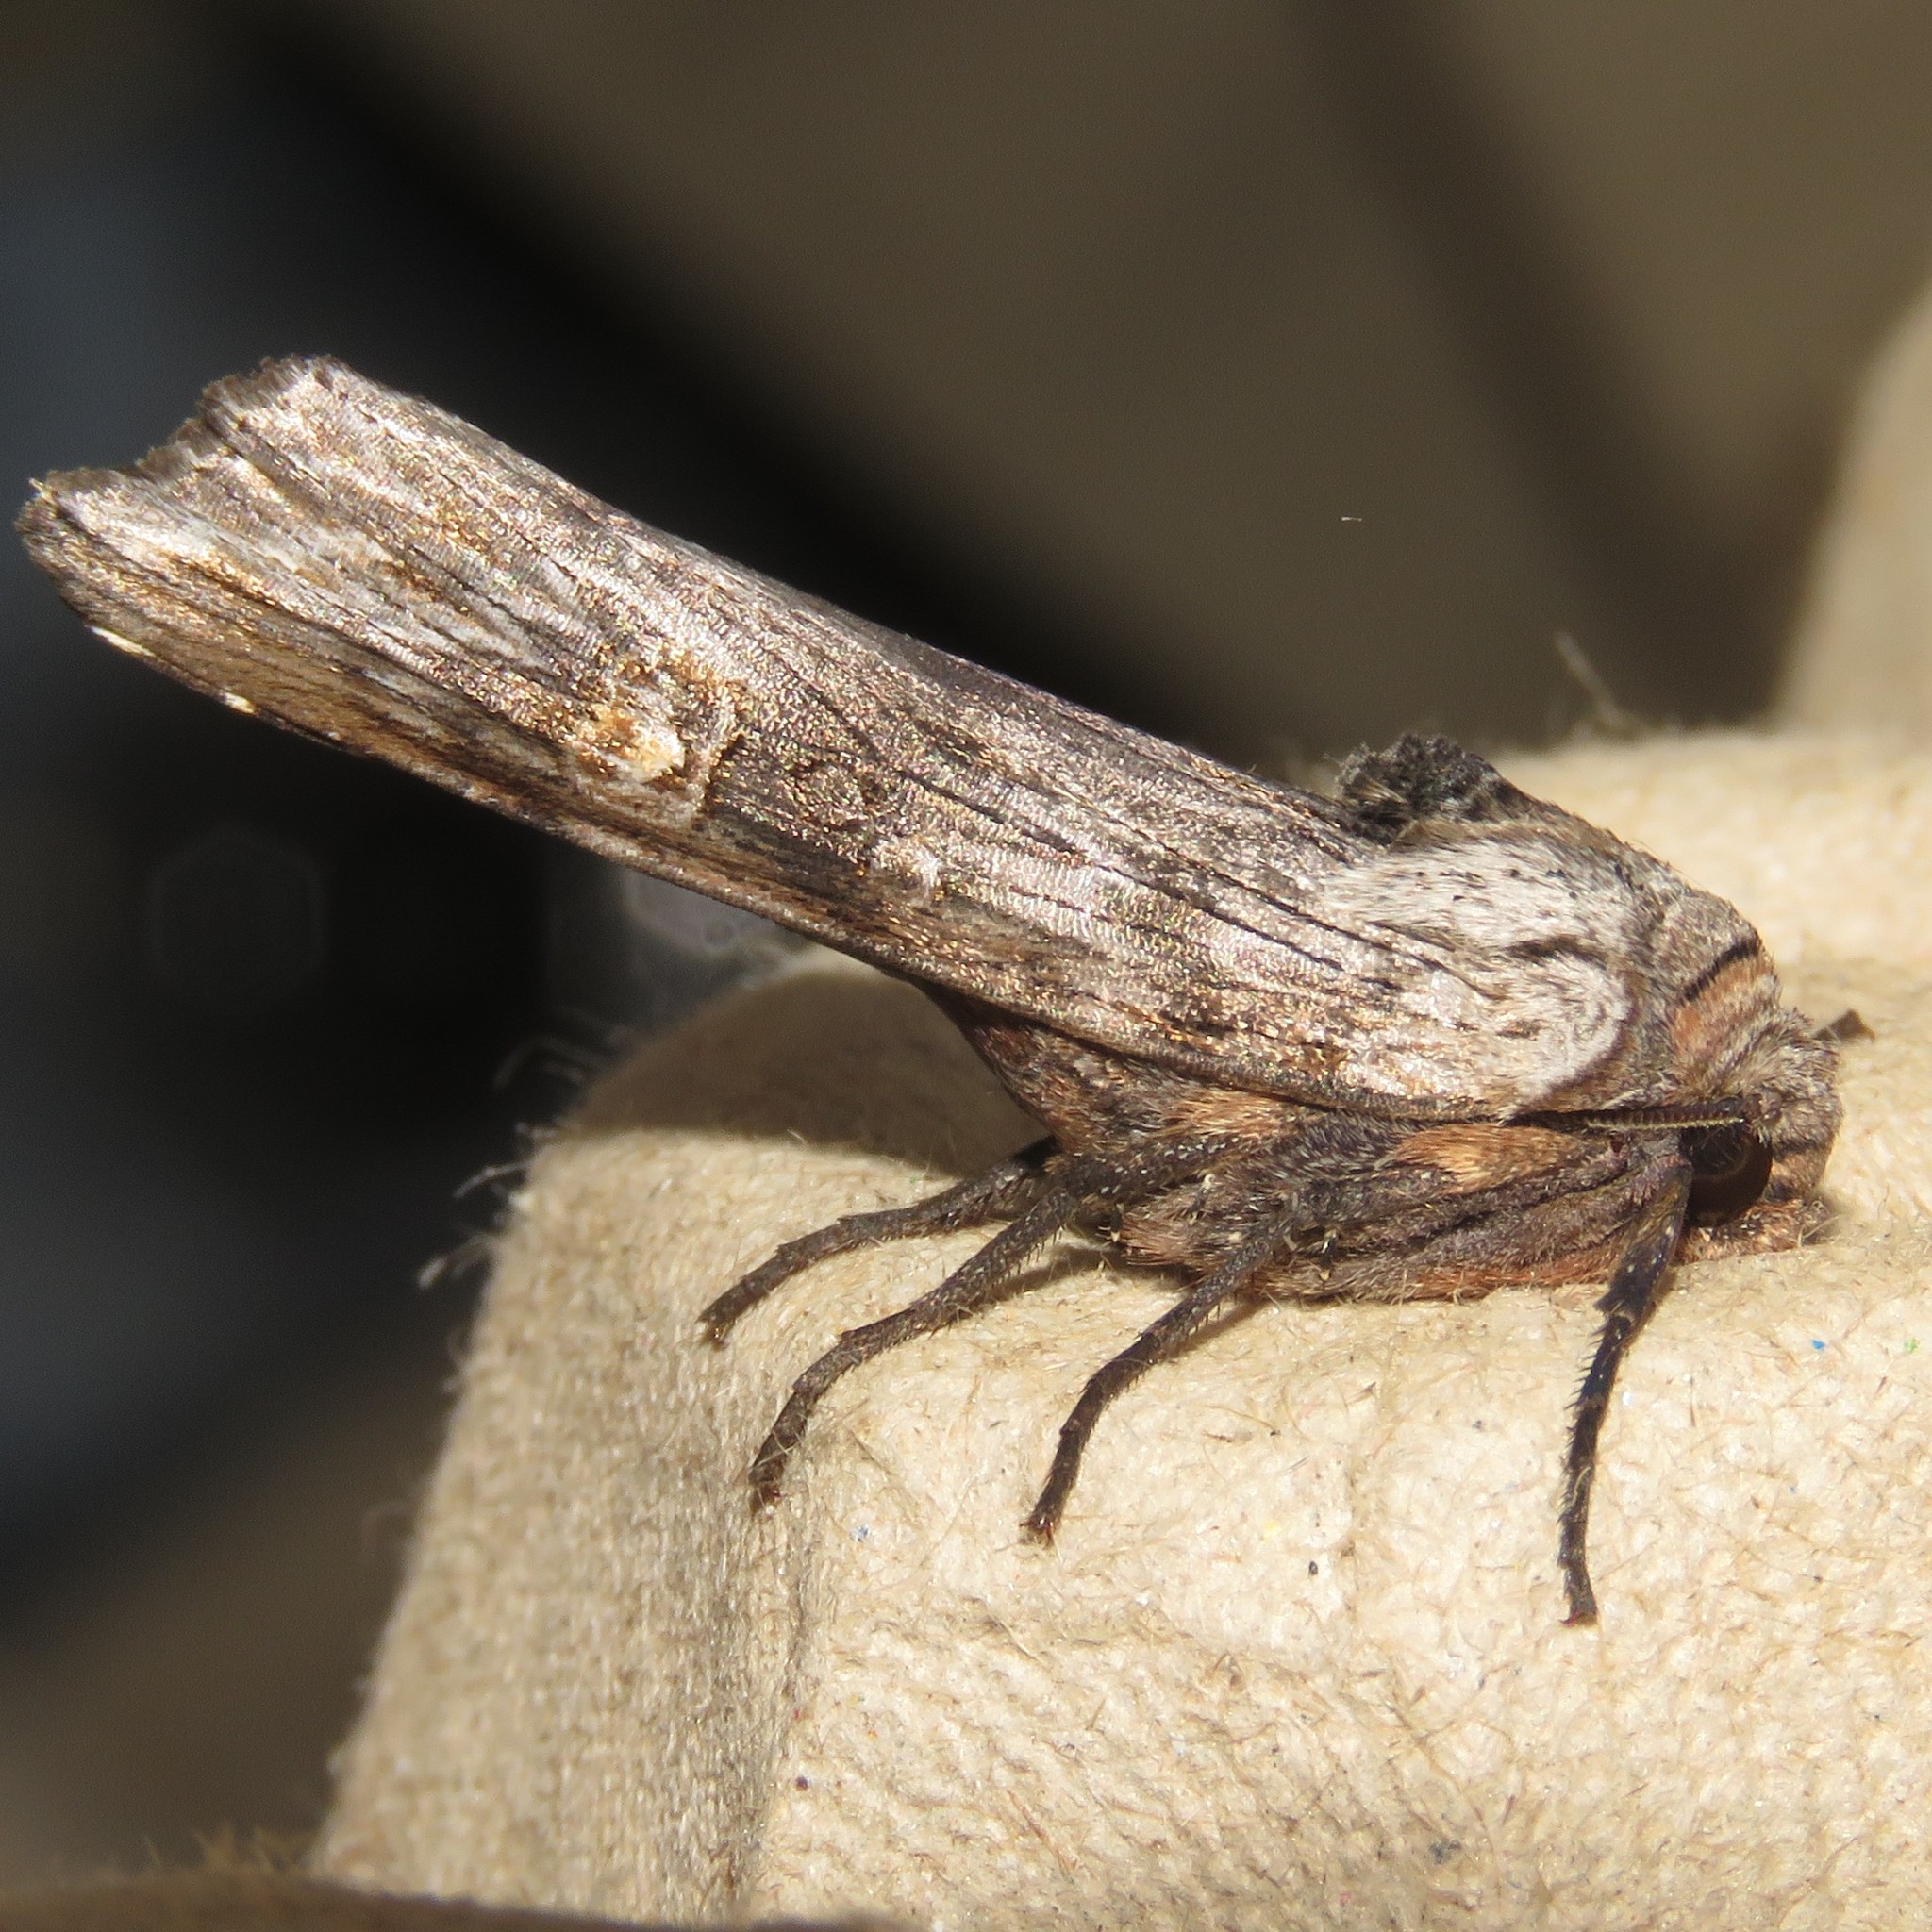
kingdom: Animalia
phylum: Arthropoda
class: Insecta
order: Lepidoptera
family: Noctuidae
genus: Xylena
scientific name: Xylena germana
